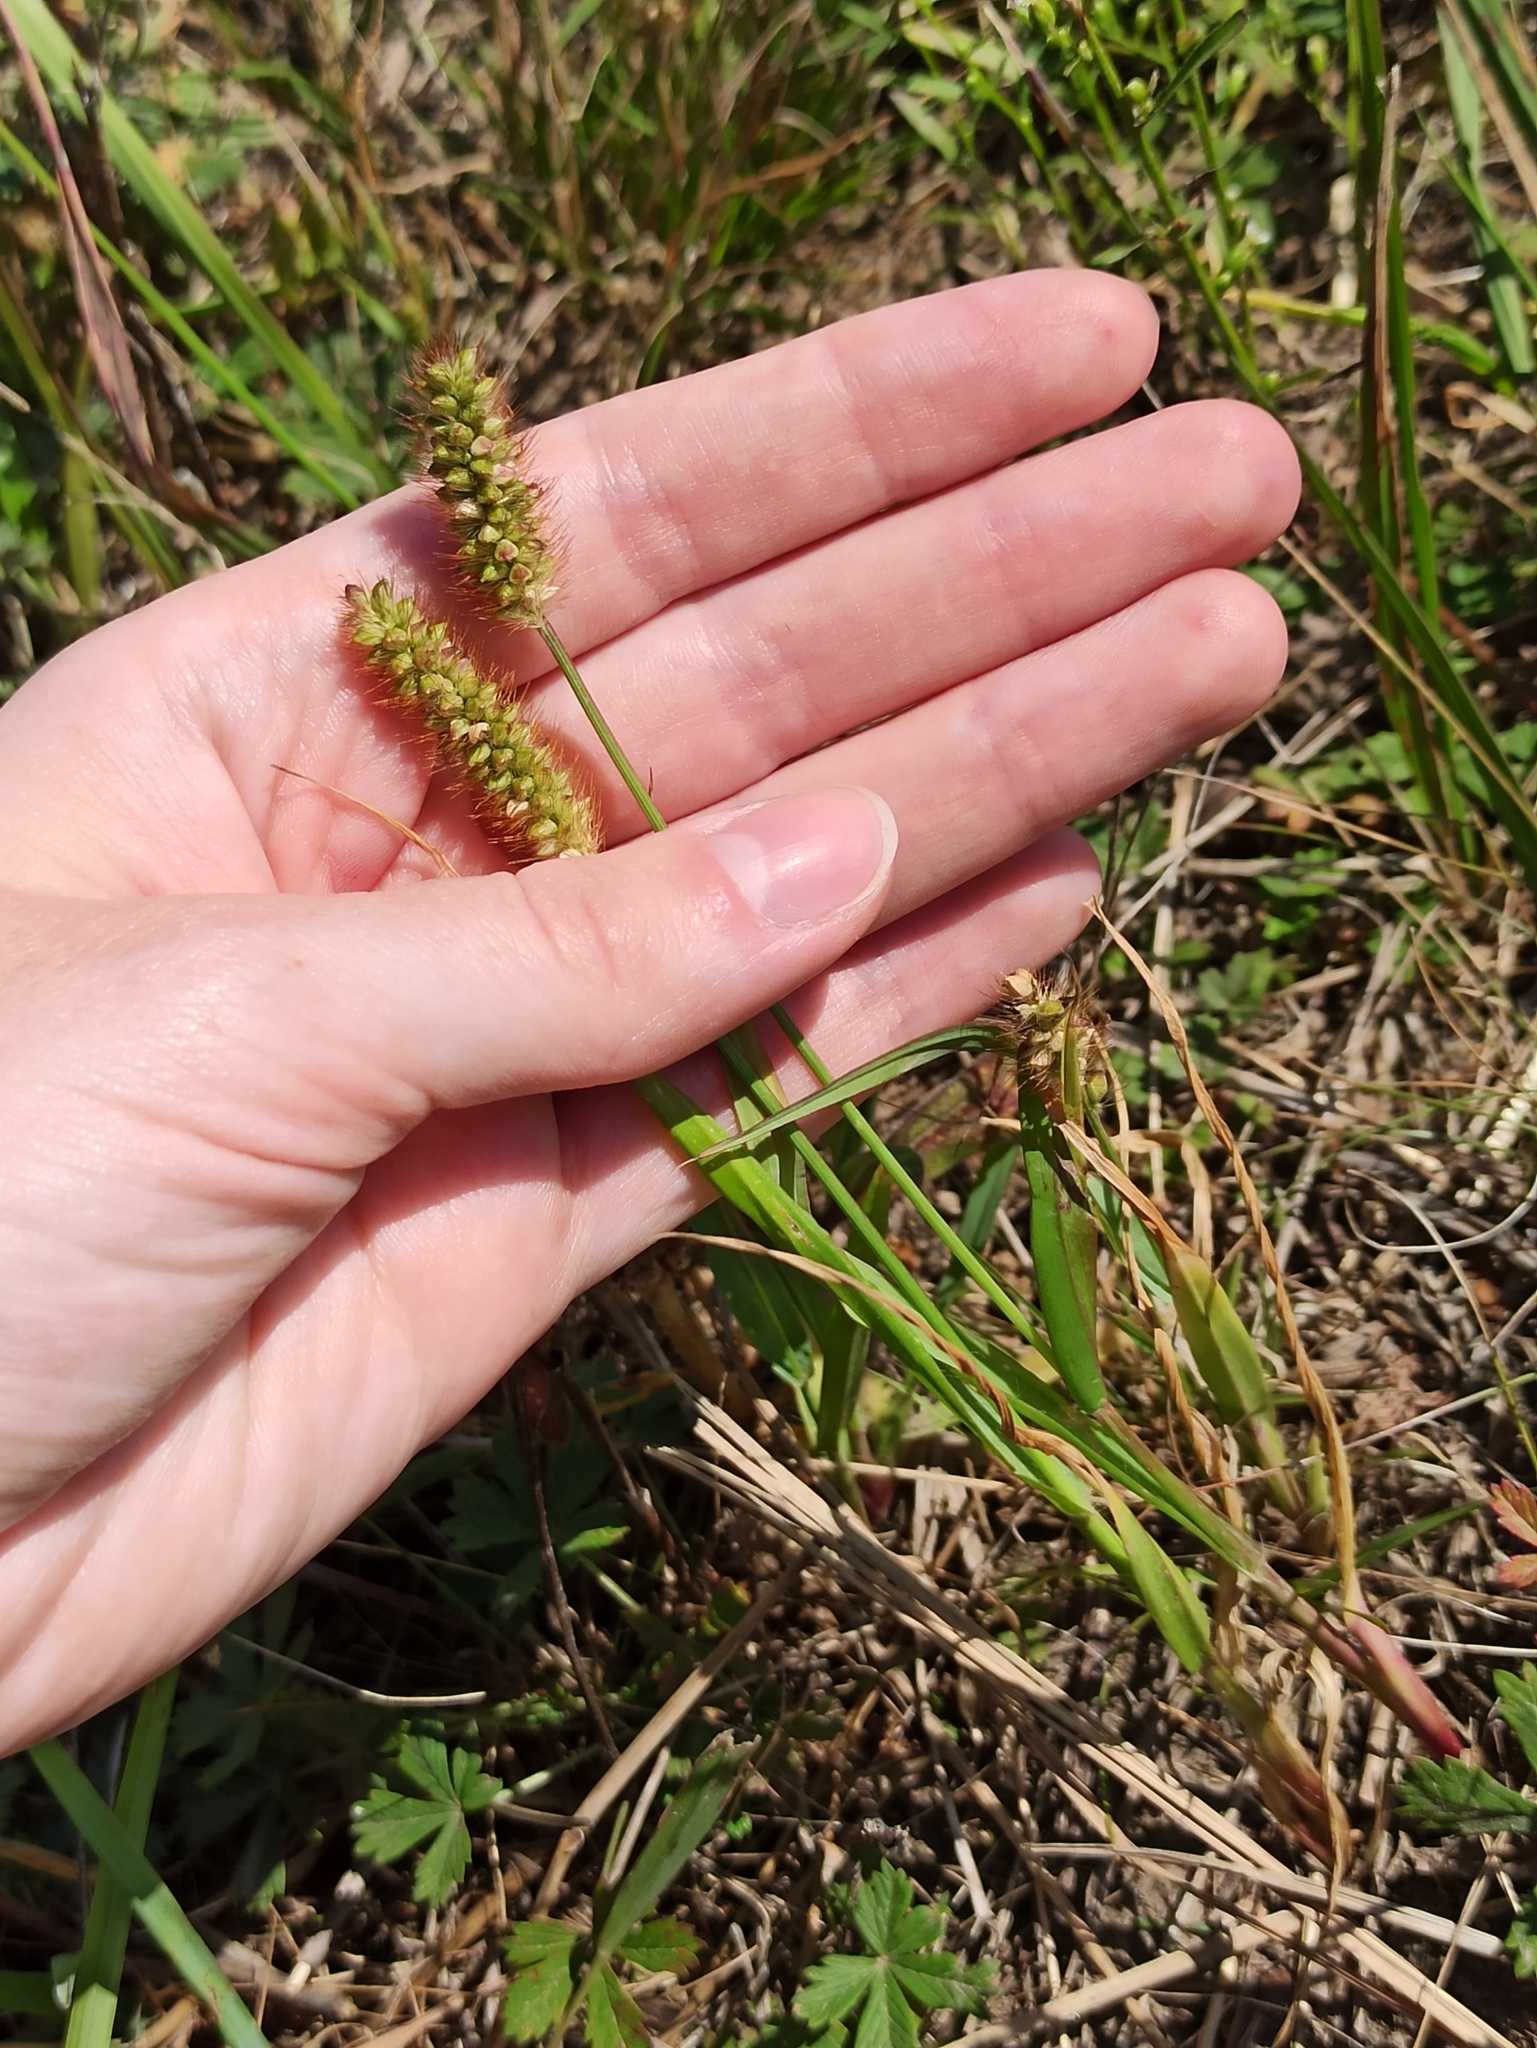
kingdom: Plantae
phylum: Tracheophyta
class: Liliopsida
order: Poales
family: Poaceae
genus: Setaria
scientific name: Setaria pumila
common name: Yellow bristle-grass
